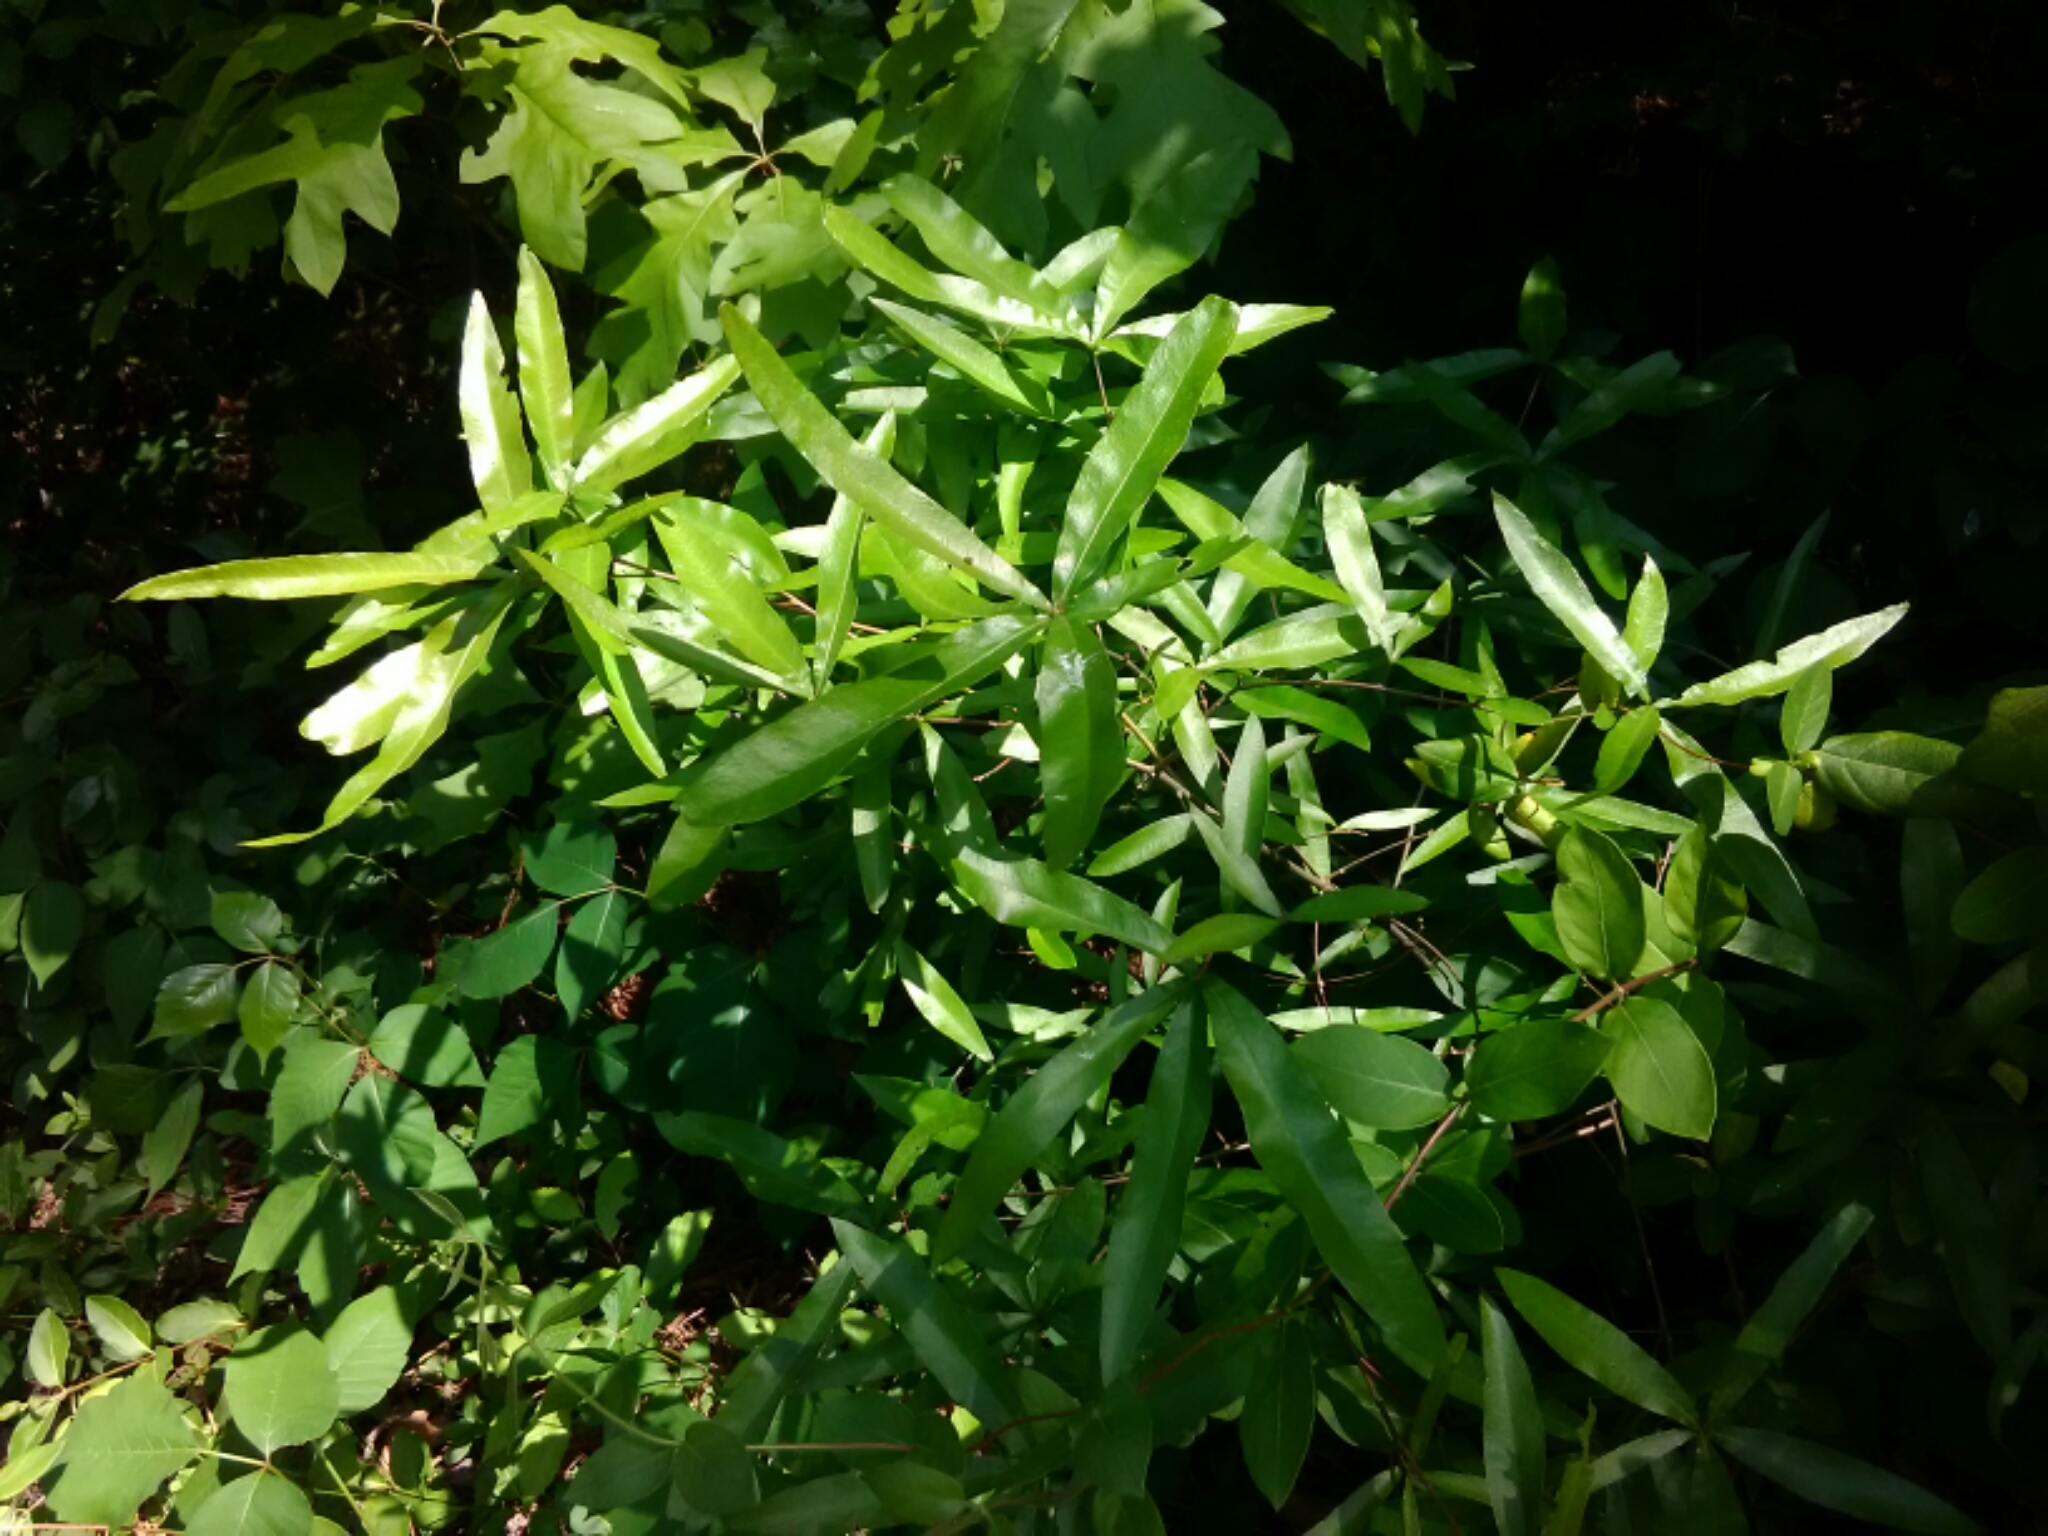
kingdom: Plantae
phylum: Tracheophyta
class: Magnoliopsida
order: Fagales
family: Fagaceae
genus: Quercus
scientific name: Quercus phellos
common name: Willow oak
